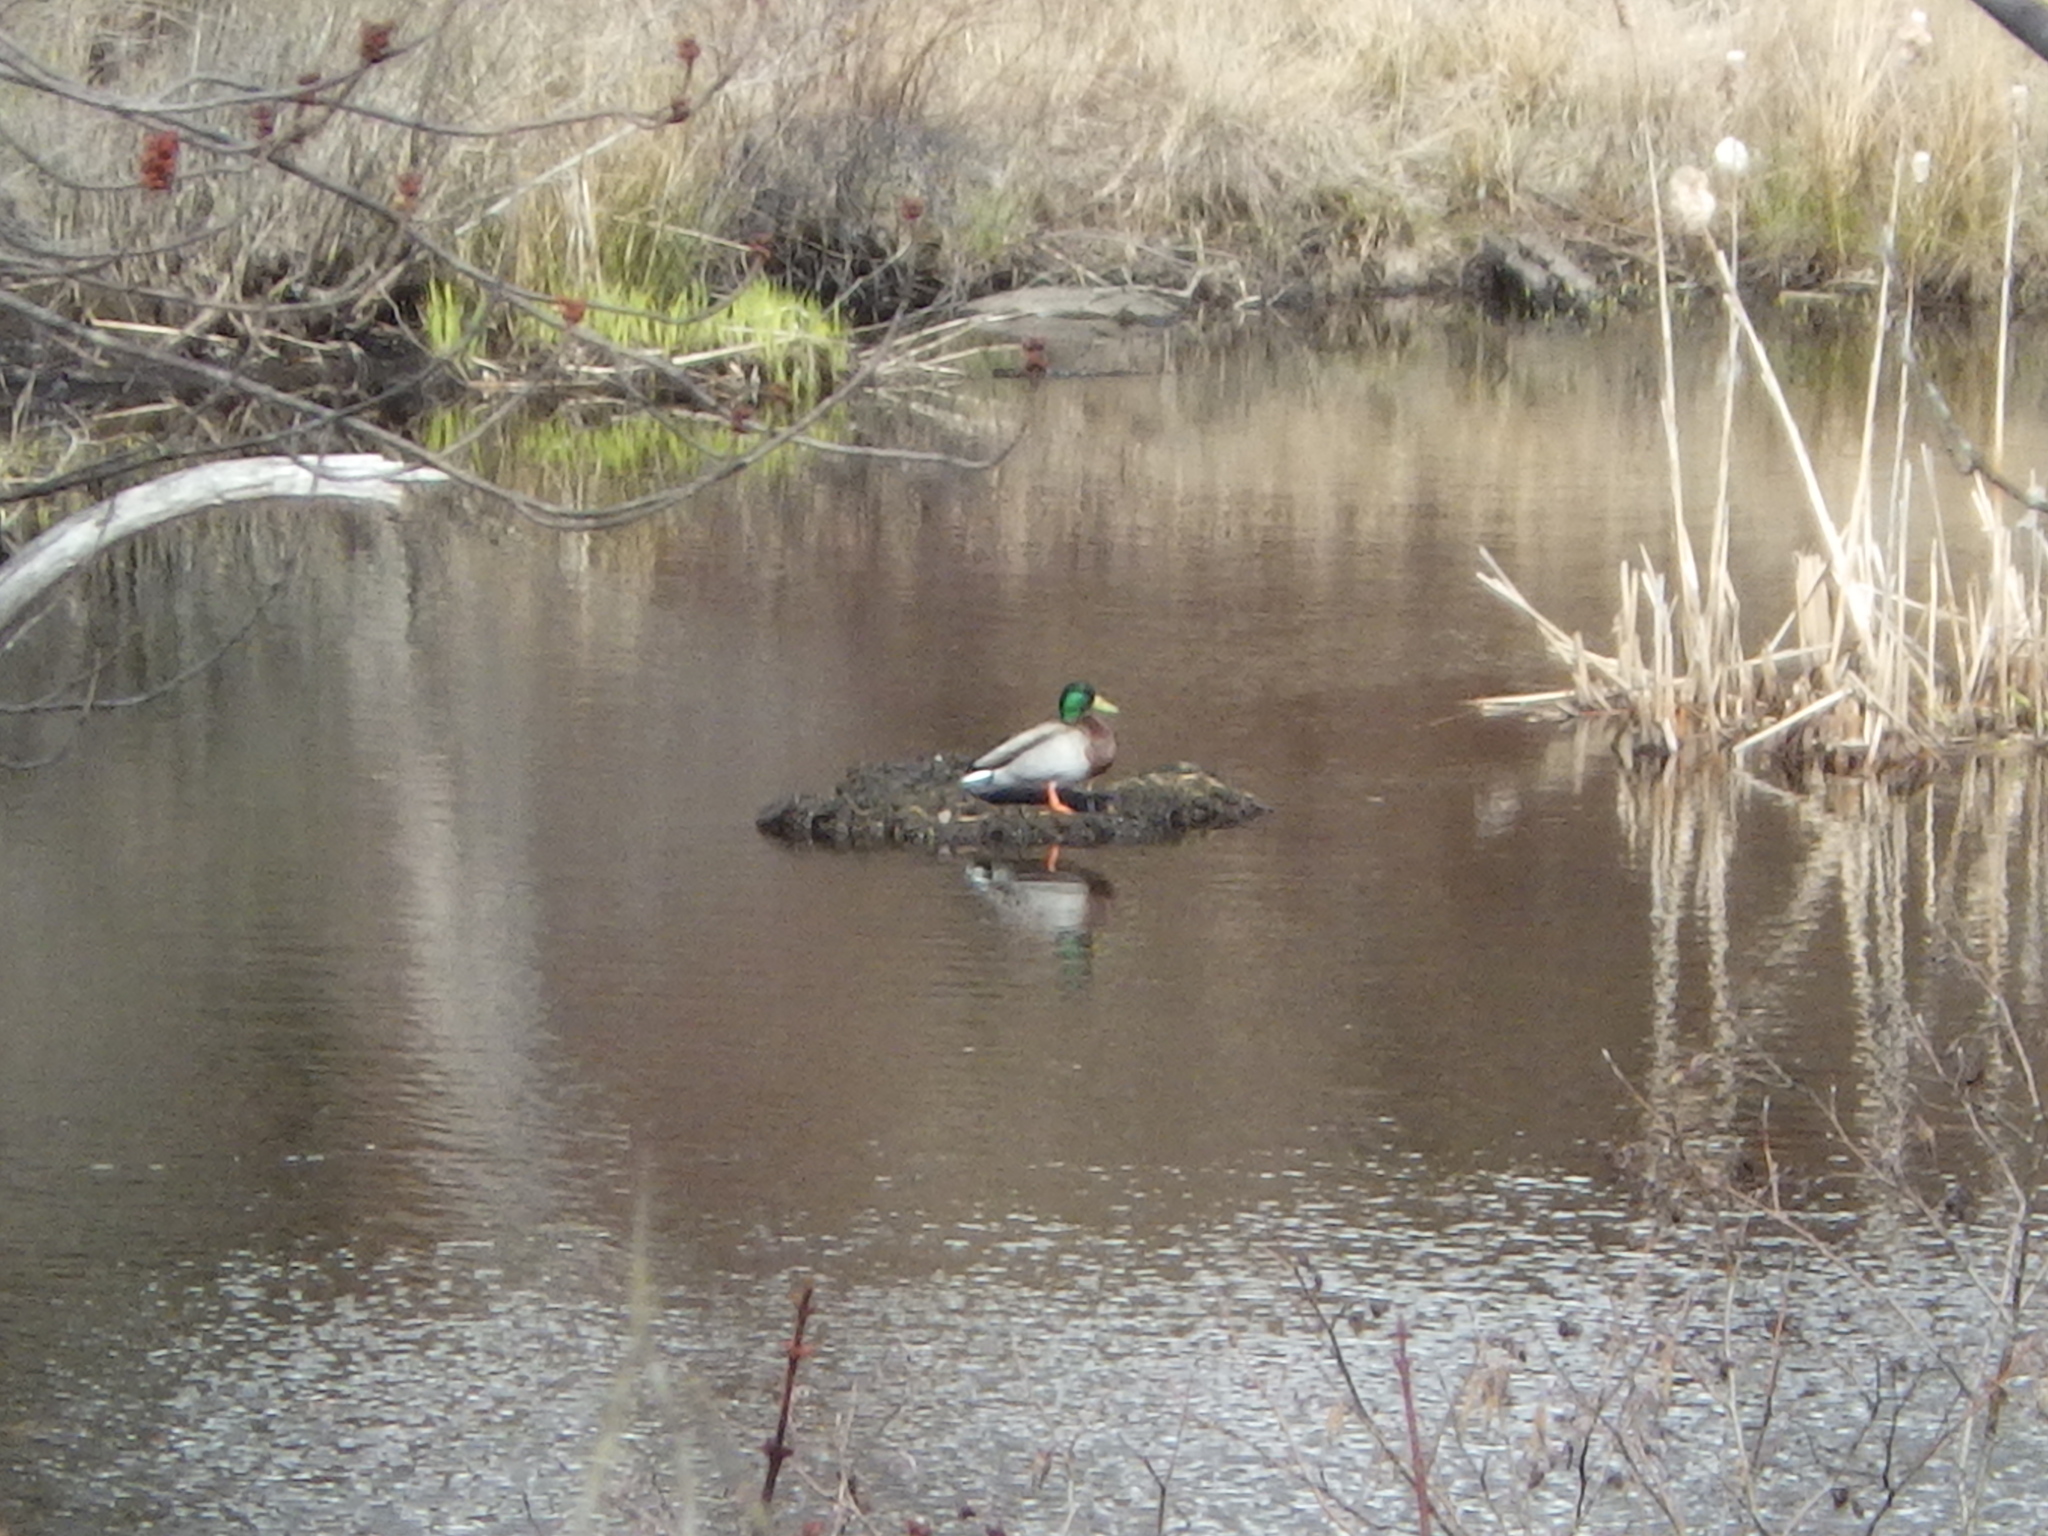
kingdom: Animalia
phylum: Chordata
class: Aves
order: Anseriformes
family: Anatidae
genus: Anas
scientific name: Anas platyrhynchos
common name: Mallard
